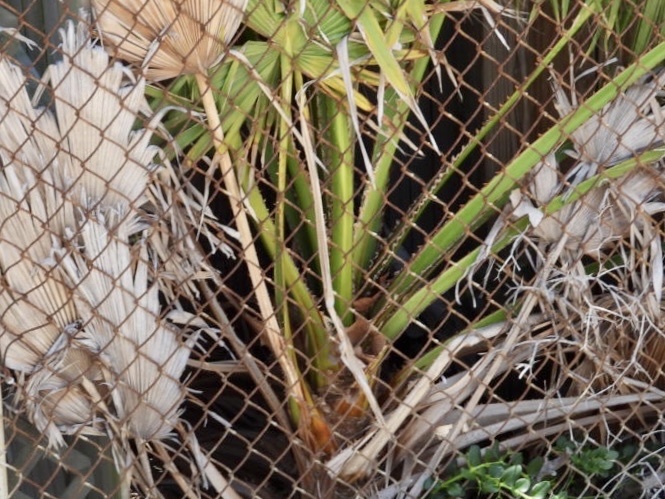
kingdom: Plantae
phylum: Tracheophyta
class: Liliopsida
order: Arecales
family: Arecaceae
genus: Washingtonia
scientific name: Washingtonia robusta
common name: Mexican fan palm
